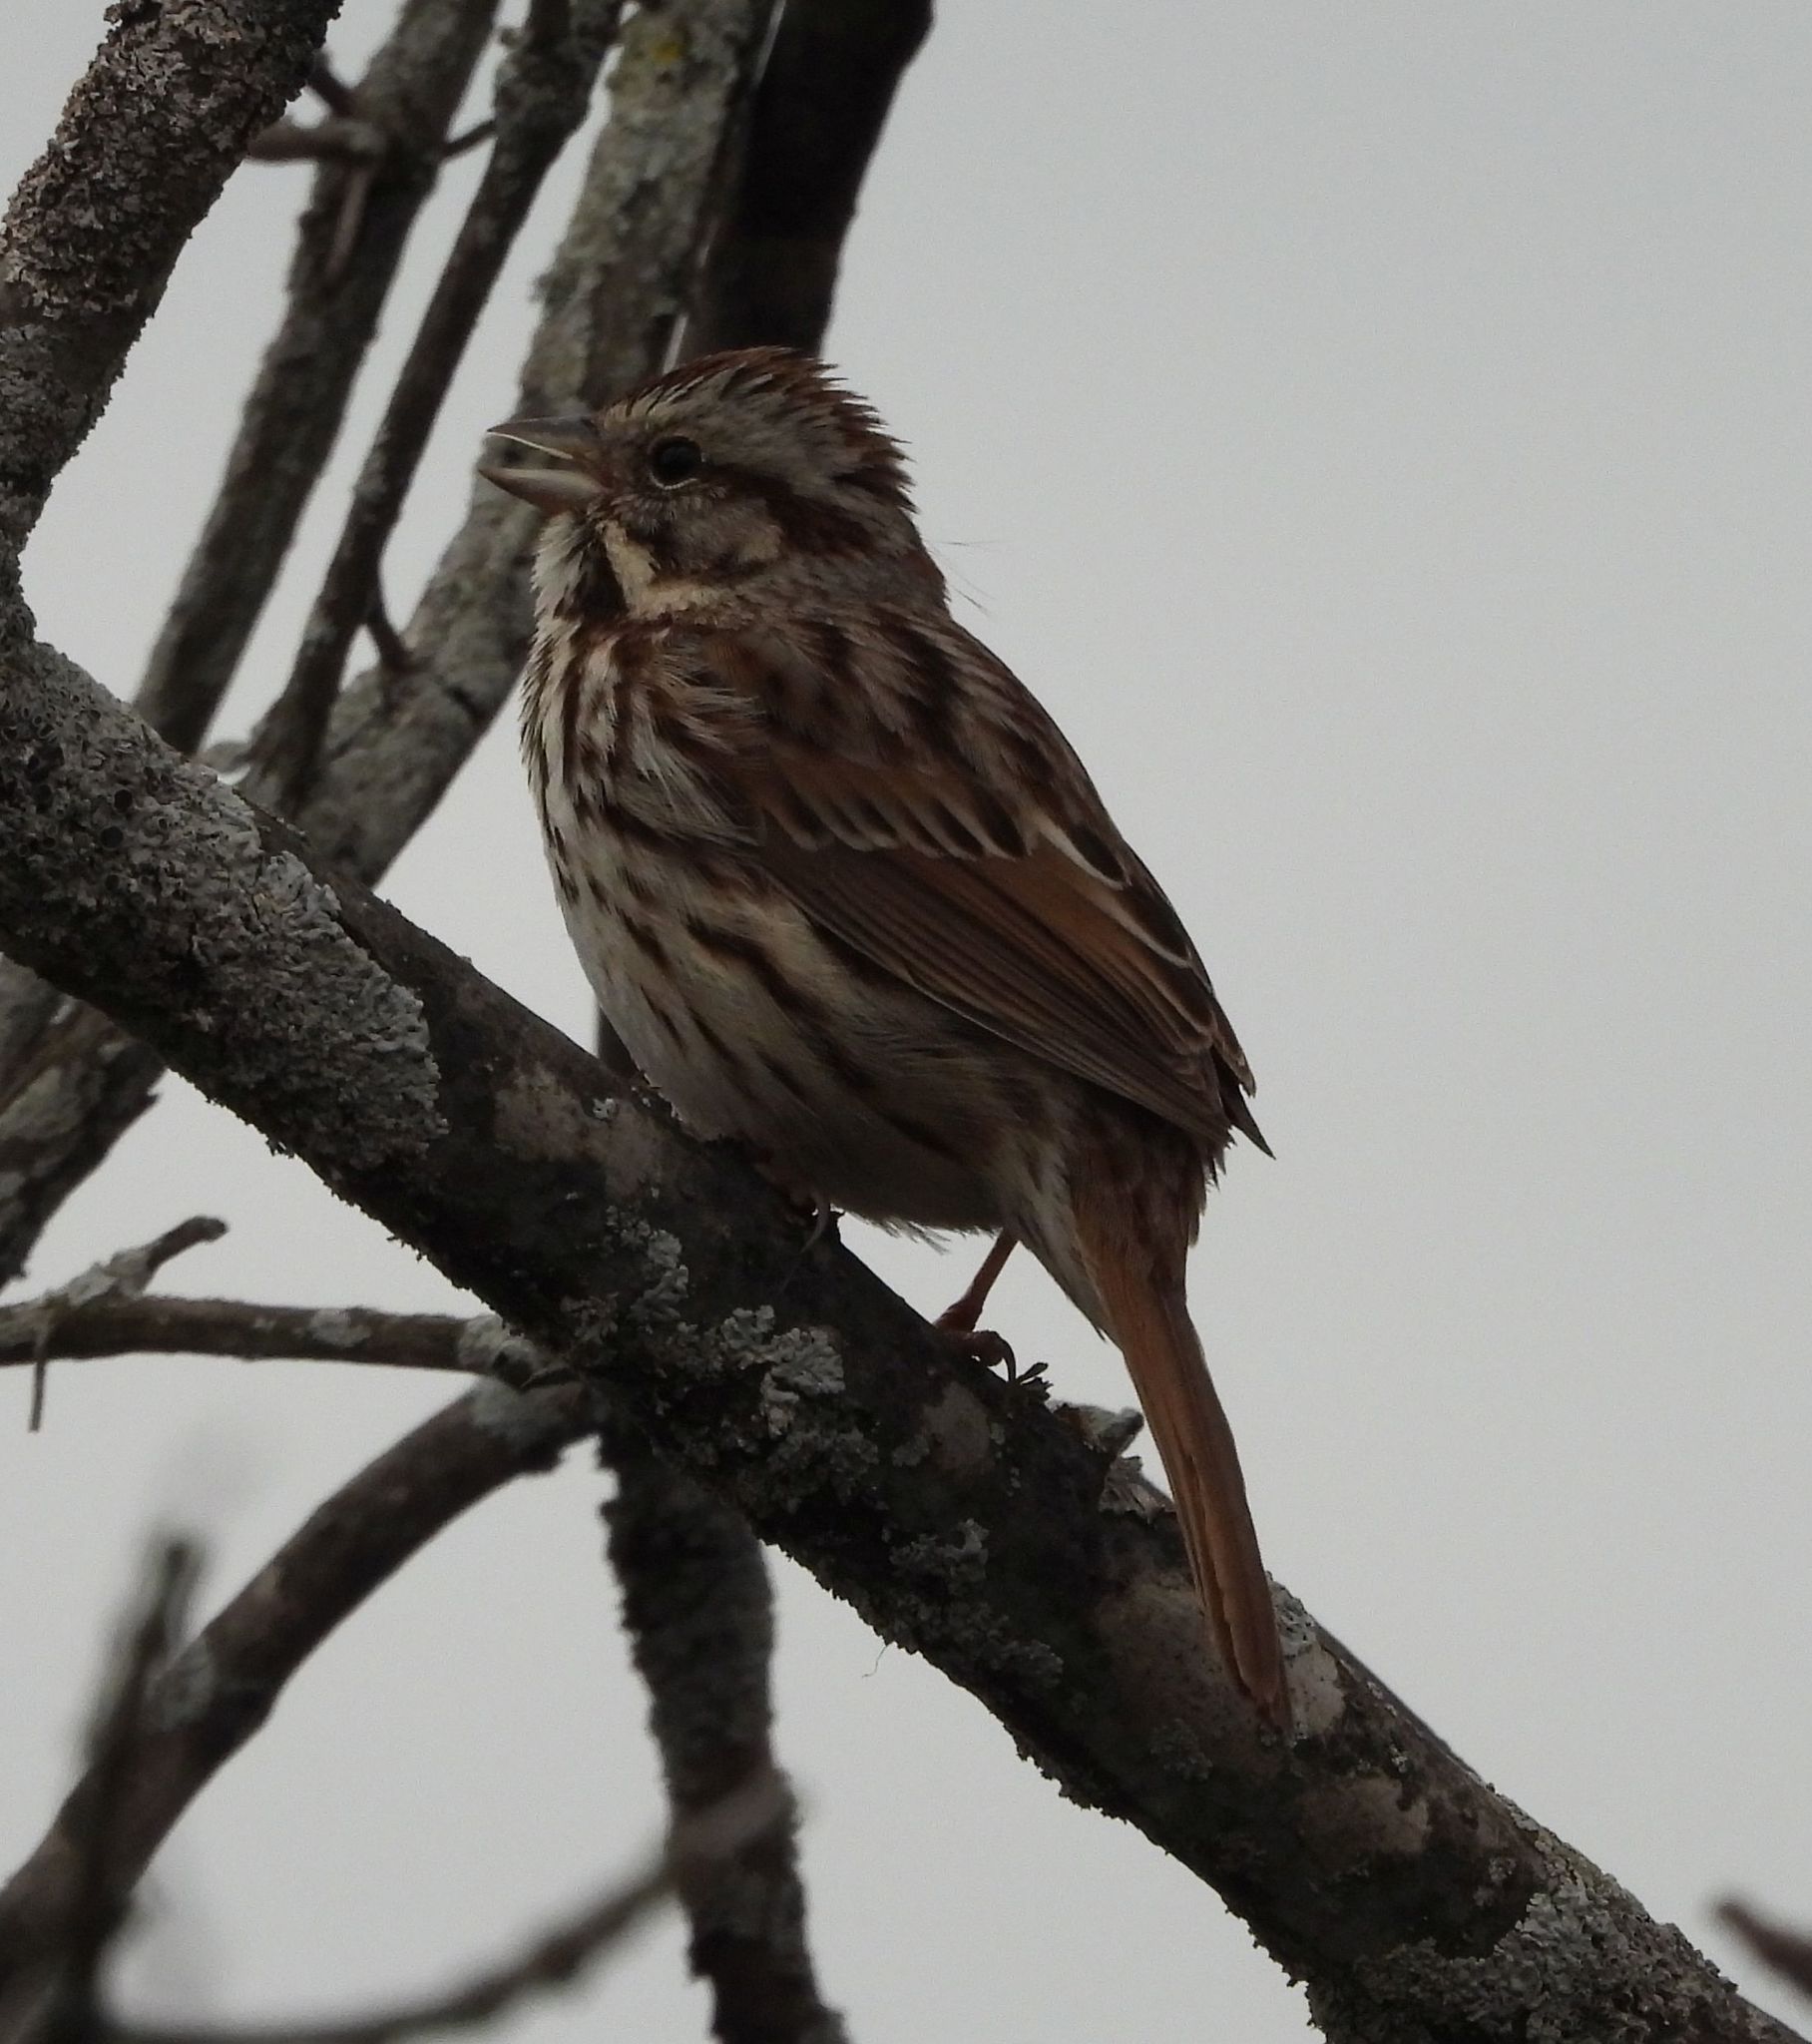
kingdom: Animalia
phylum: Chordata
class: Aves
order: Passeriformes
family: Passerellidae
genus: Melospiza
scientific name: Melospiza melodia
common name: Song sparrow
